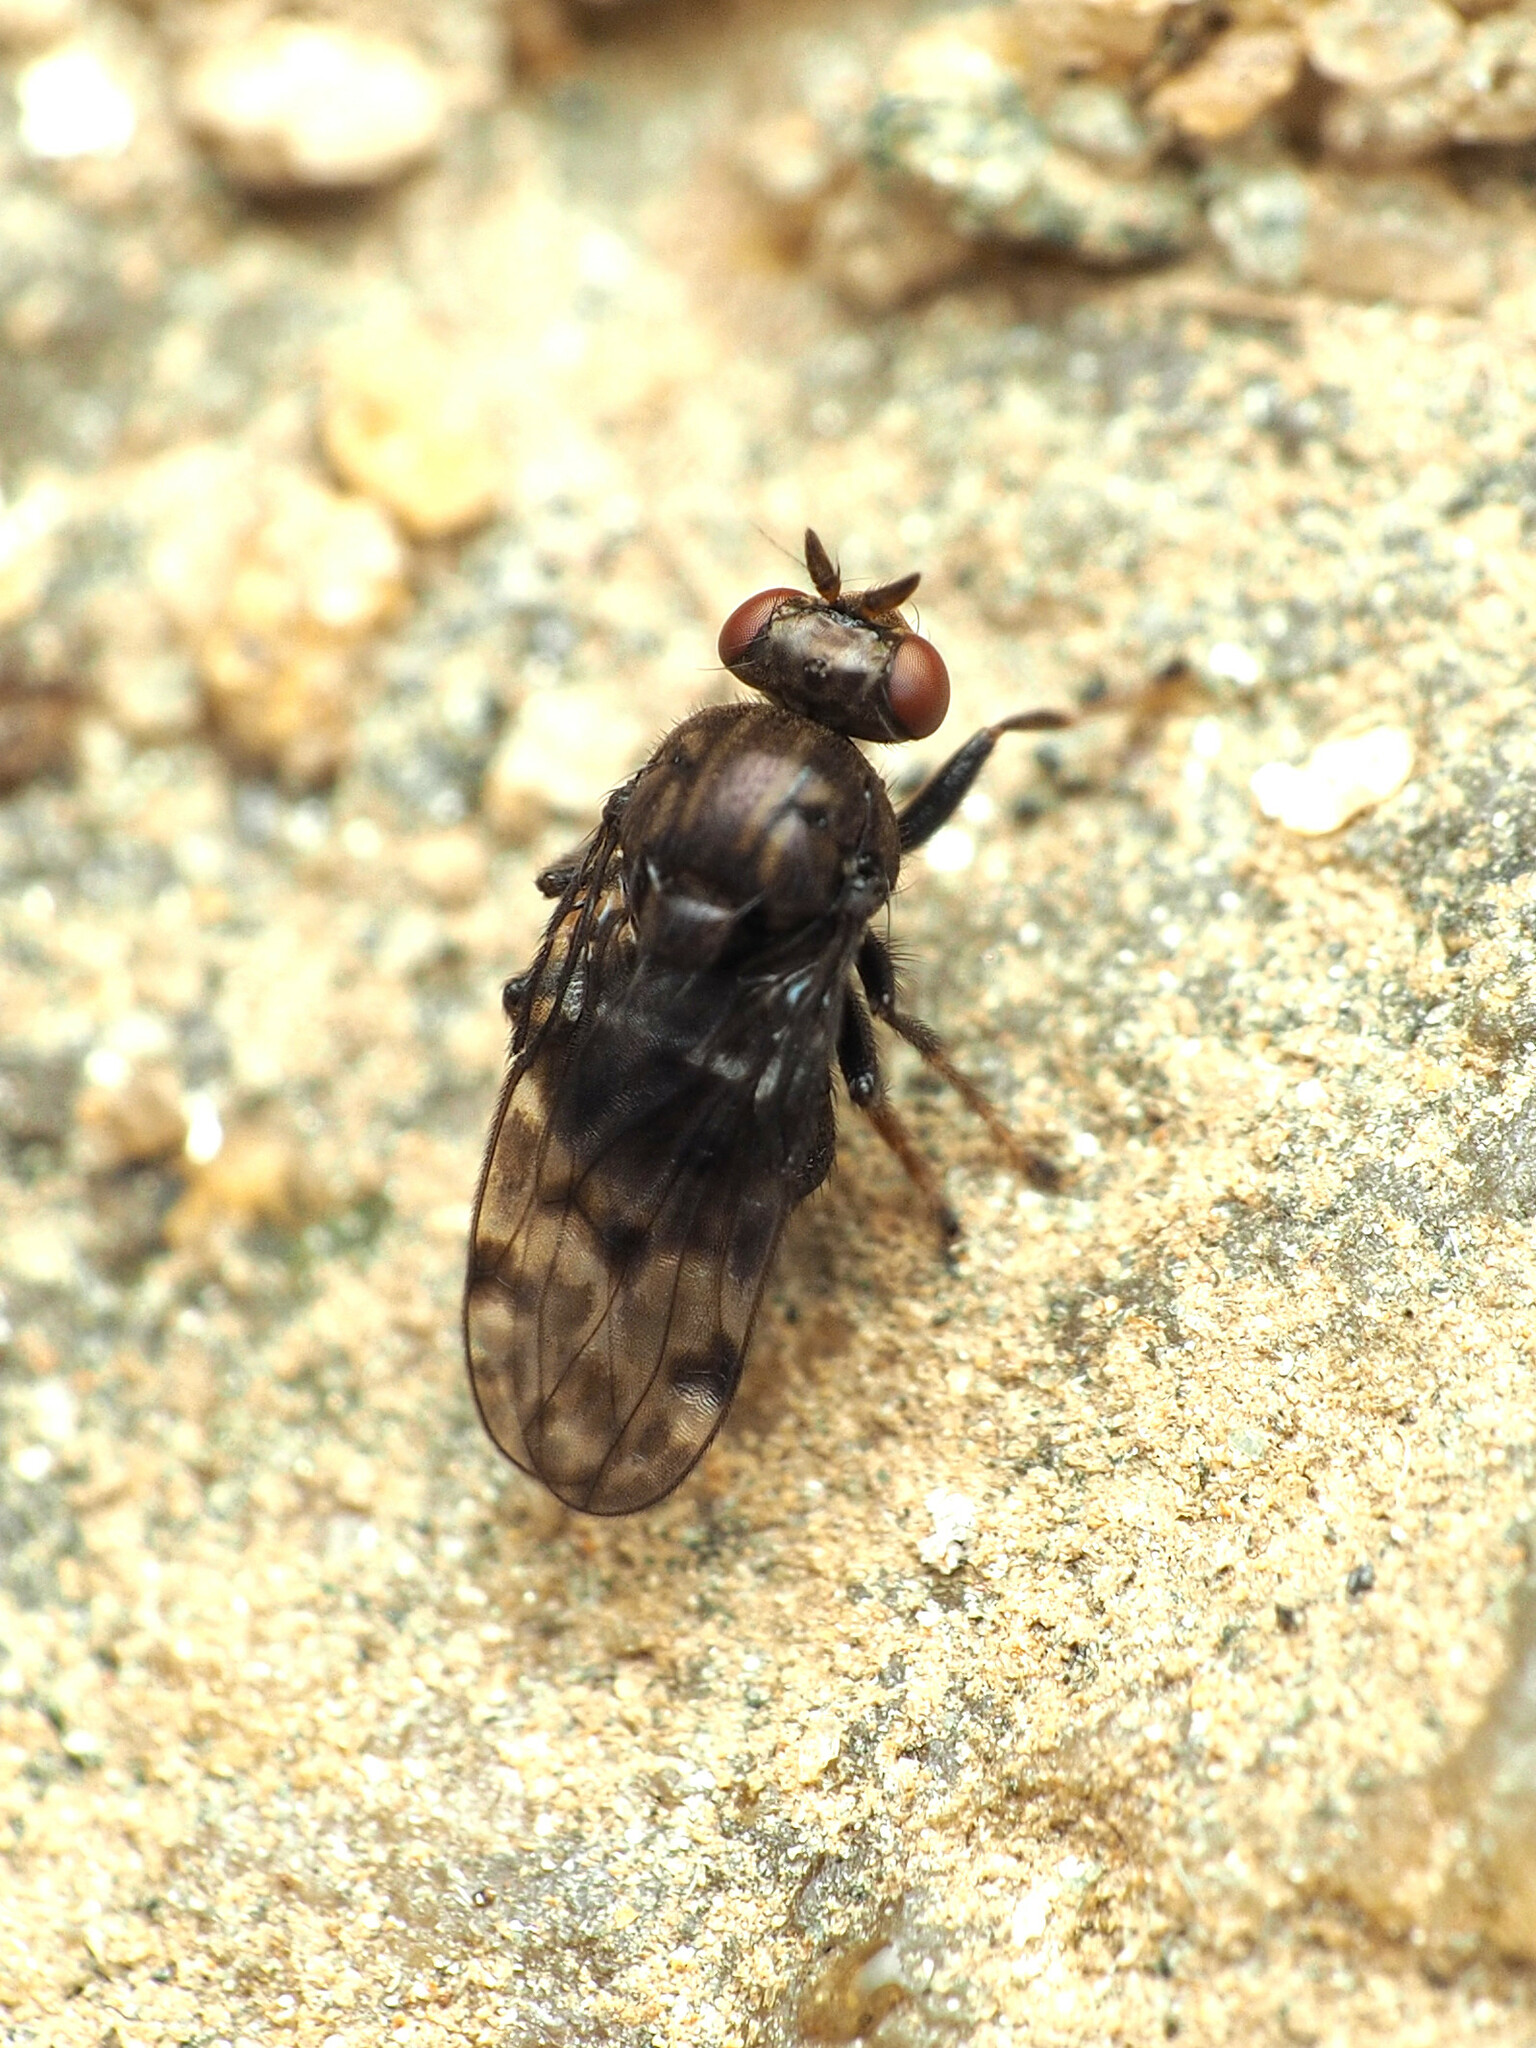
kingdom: Animalia
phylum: Arthropoda
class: Insecta
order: Diptera
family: Ephydridae
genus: Gastrops
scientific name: Gastrops nebulosus
